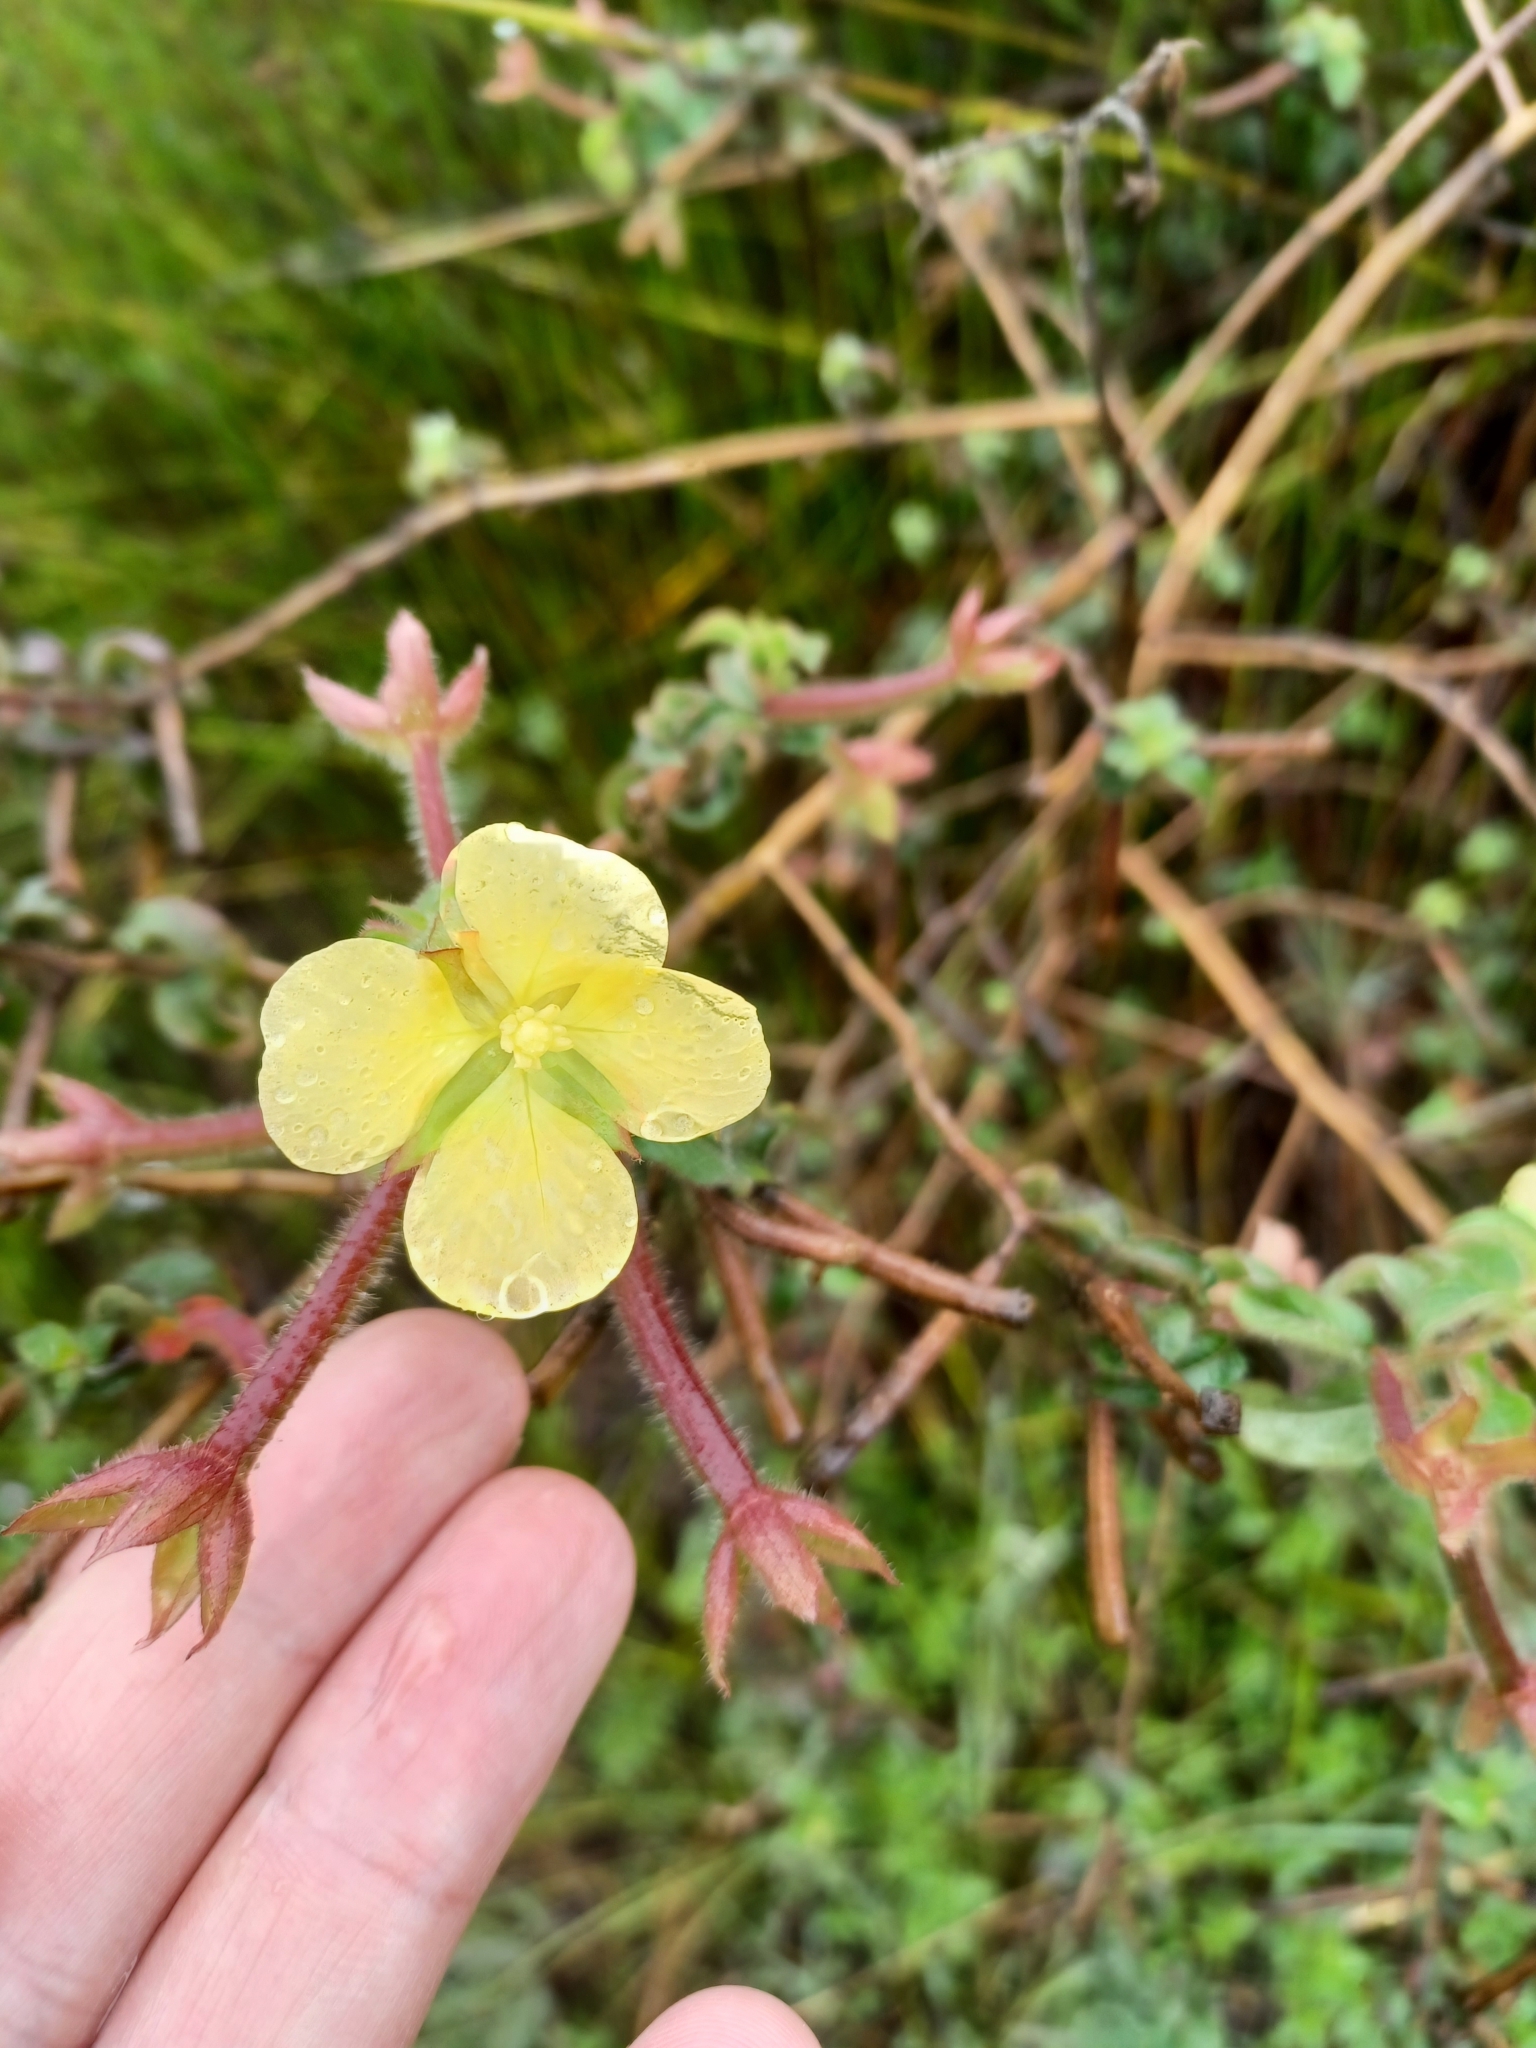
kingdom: Plantae
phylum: Tracheophyta
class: Magnoliopsida
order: Myrtales
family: Onagraceae
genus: Ludwigia
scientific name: Ludwigia octovalvis
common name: Water-primrose
